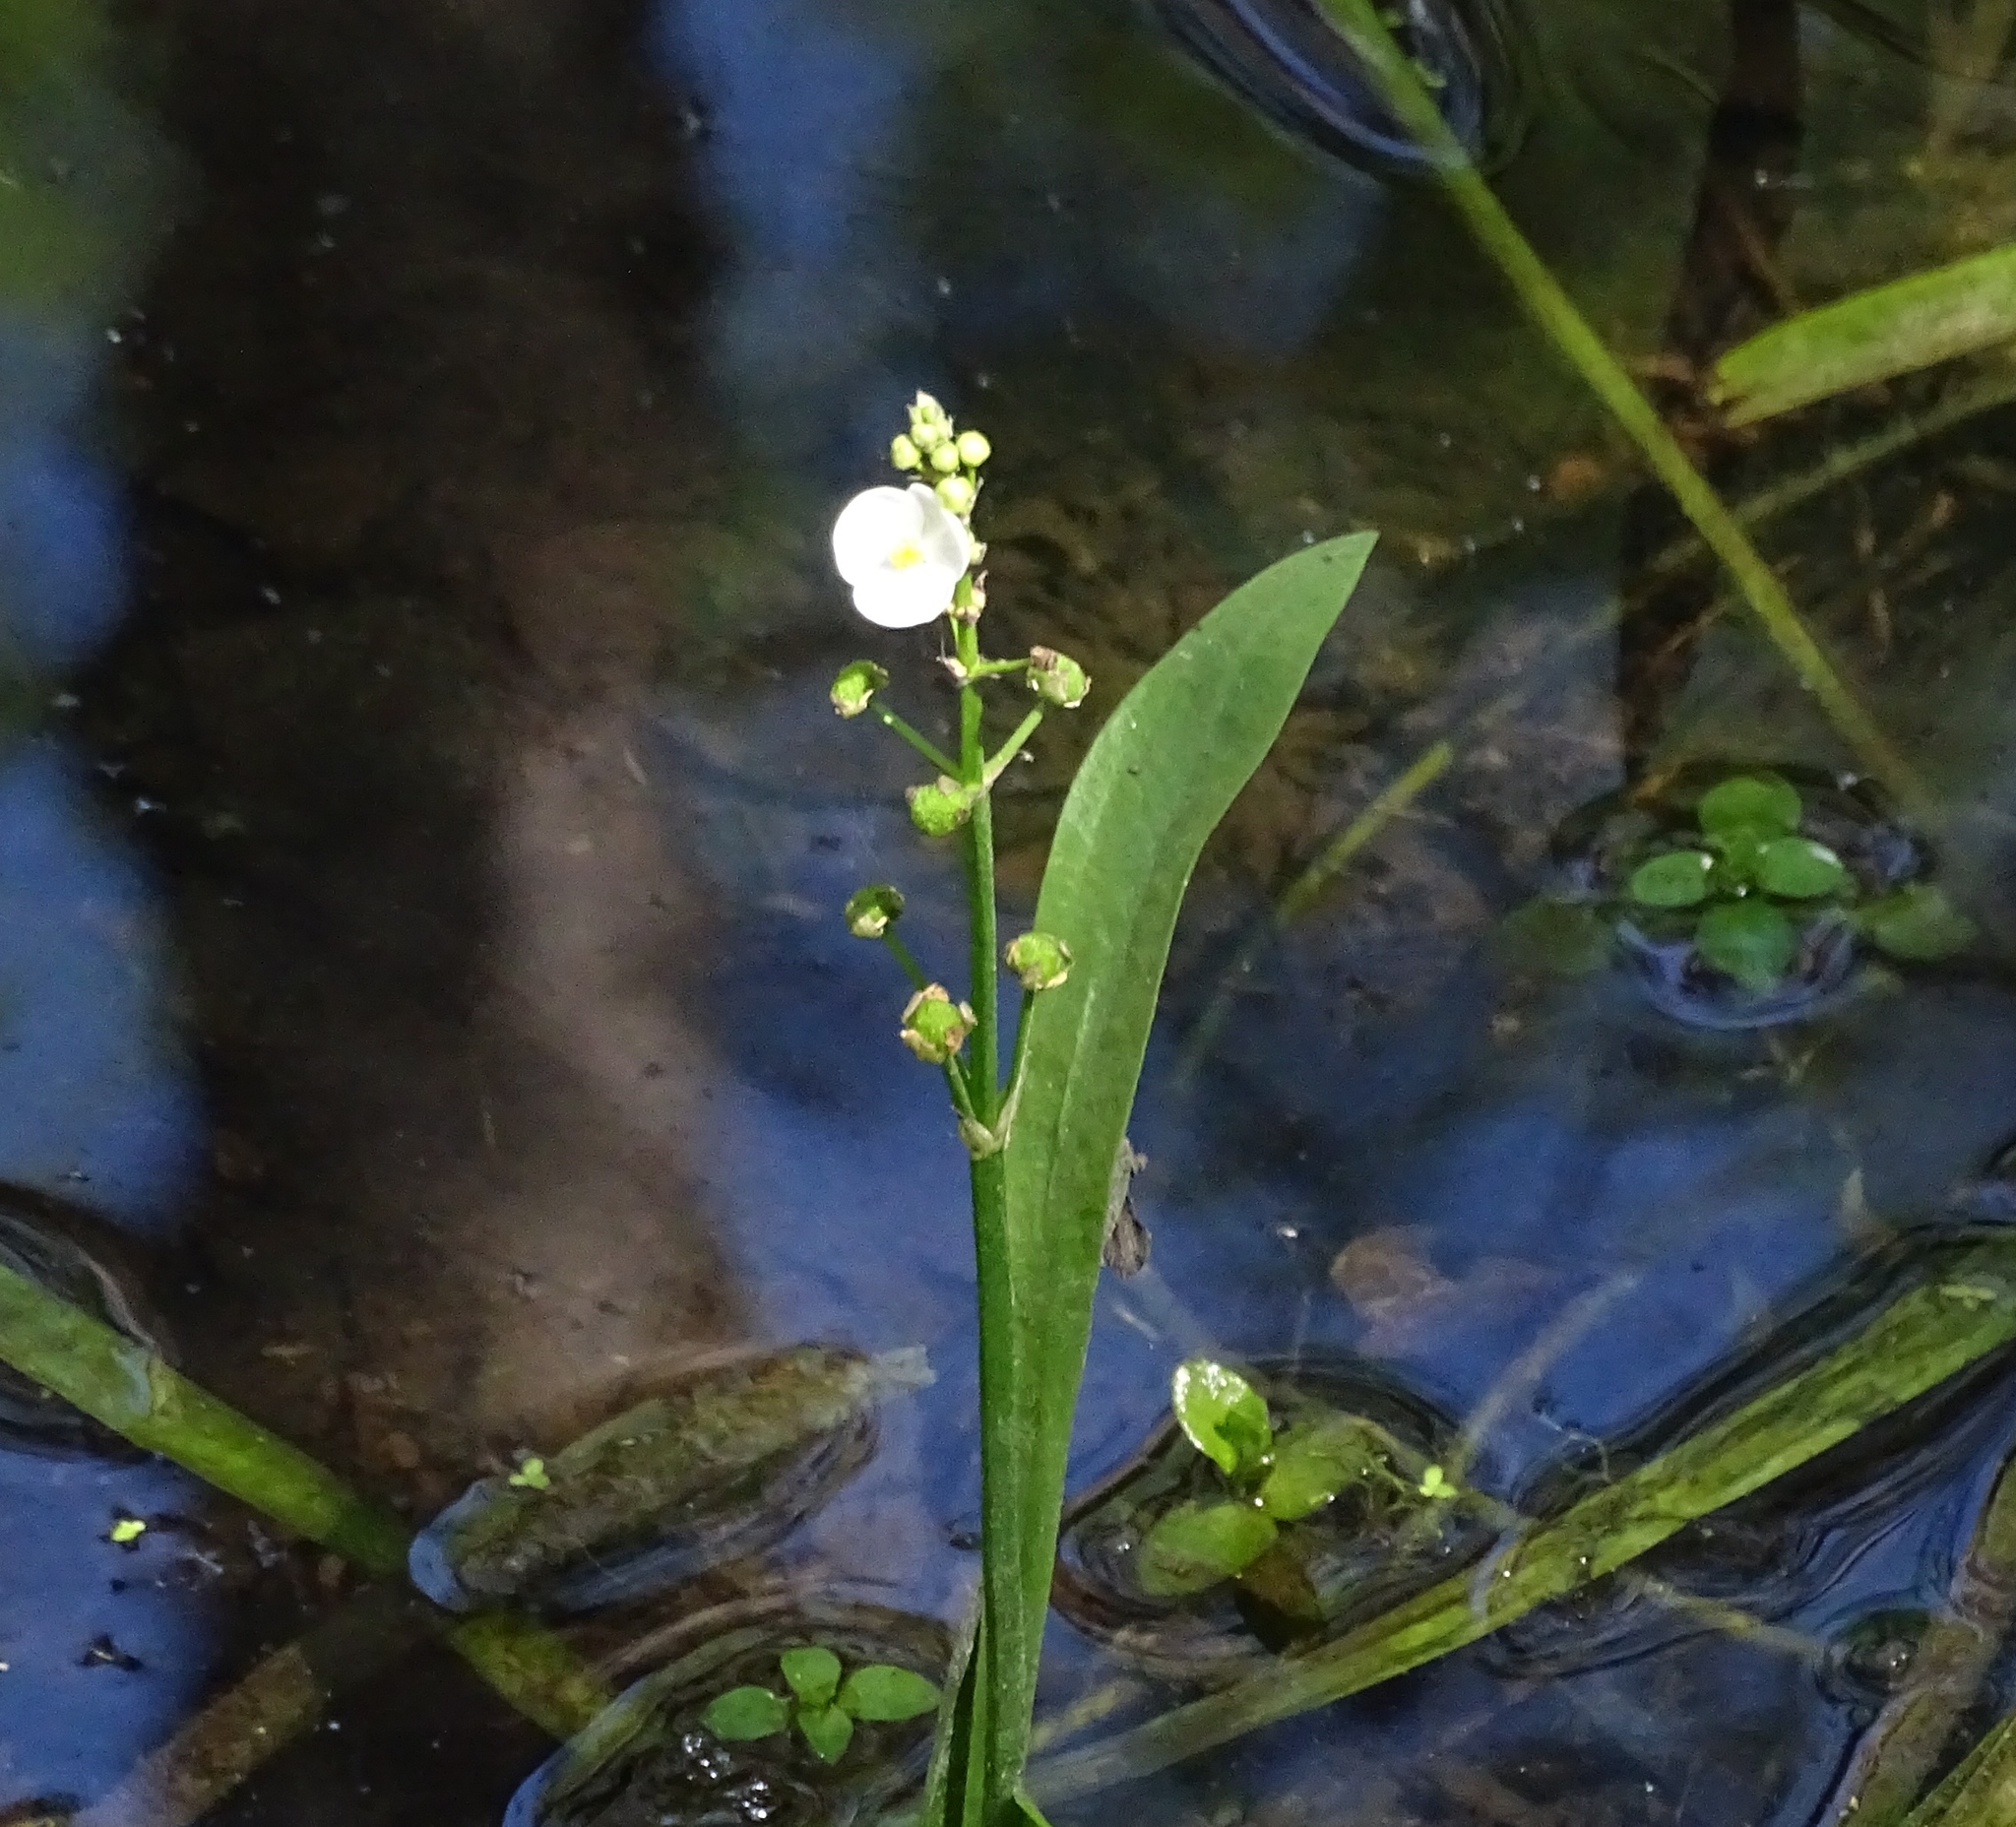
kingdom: Plantae
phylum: Tracheophyta
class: Liliopsida
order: Alismatales
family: Alismataceae
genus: Sagittaria
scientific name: Sagittaria graminea
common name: Grass-leaved arrowhead
